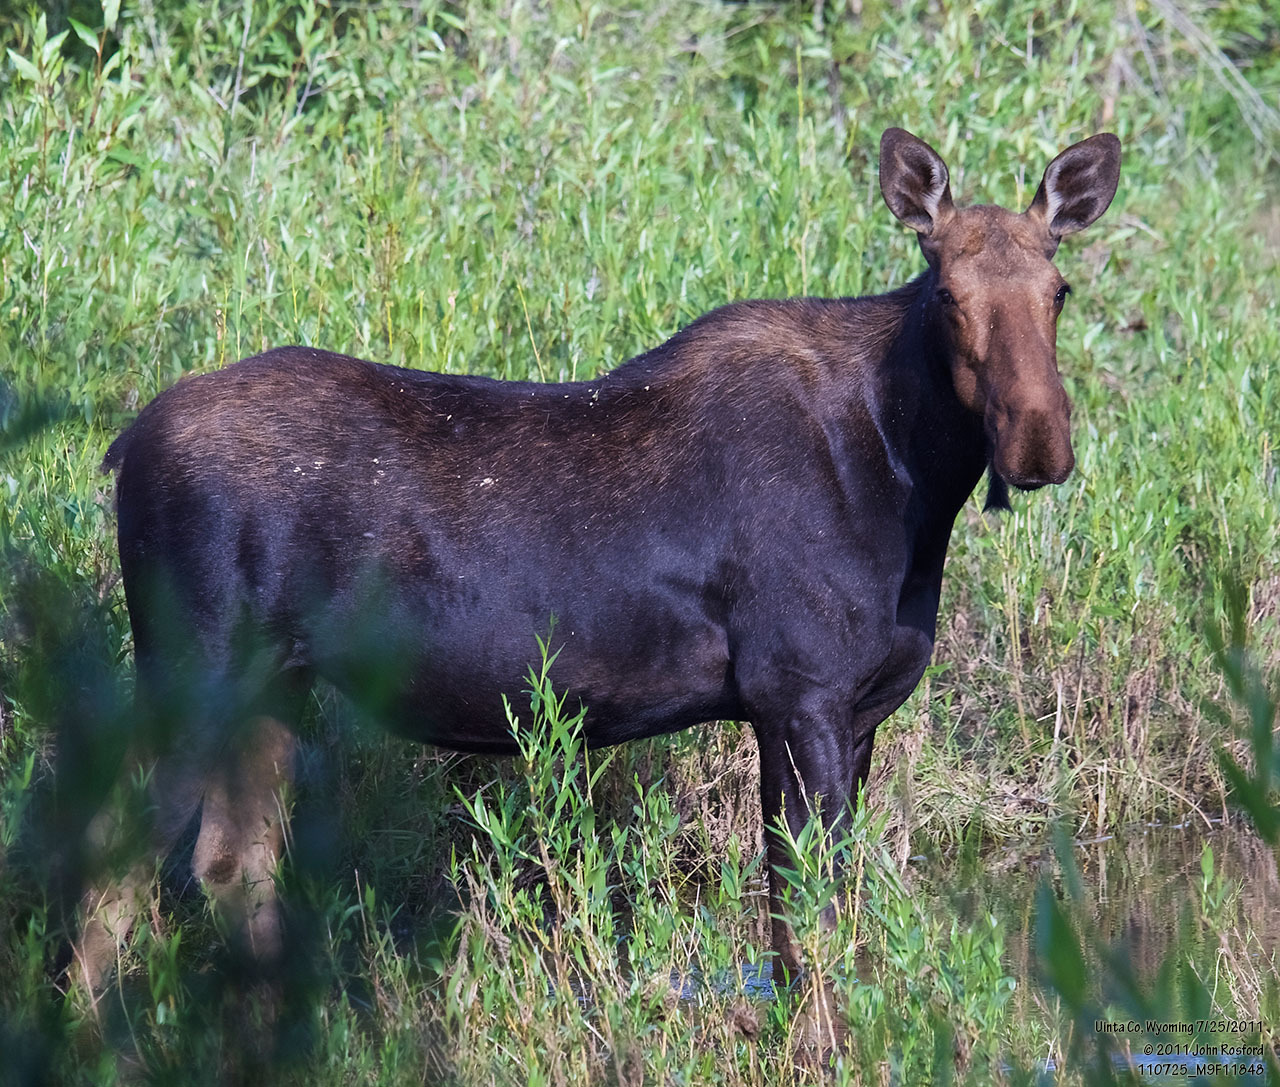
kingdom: Animalia
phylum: Chordata
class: Mammalia
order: Artiodactyla
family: Cervidae
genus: Alces
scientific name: Alces alces
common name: Moose
